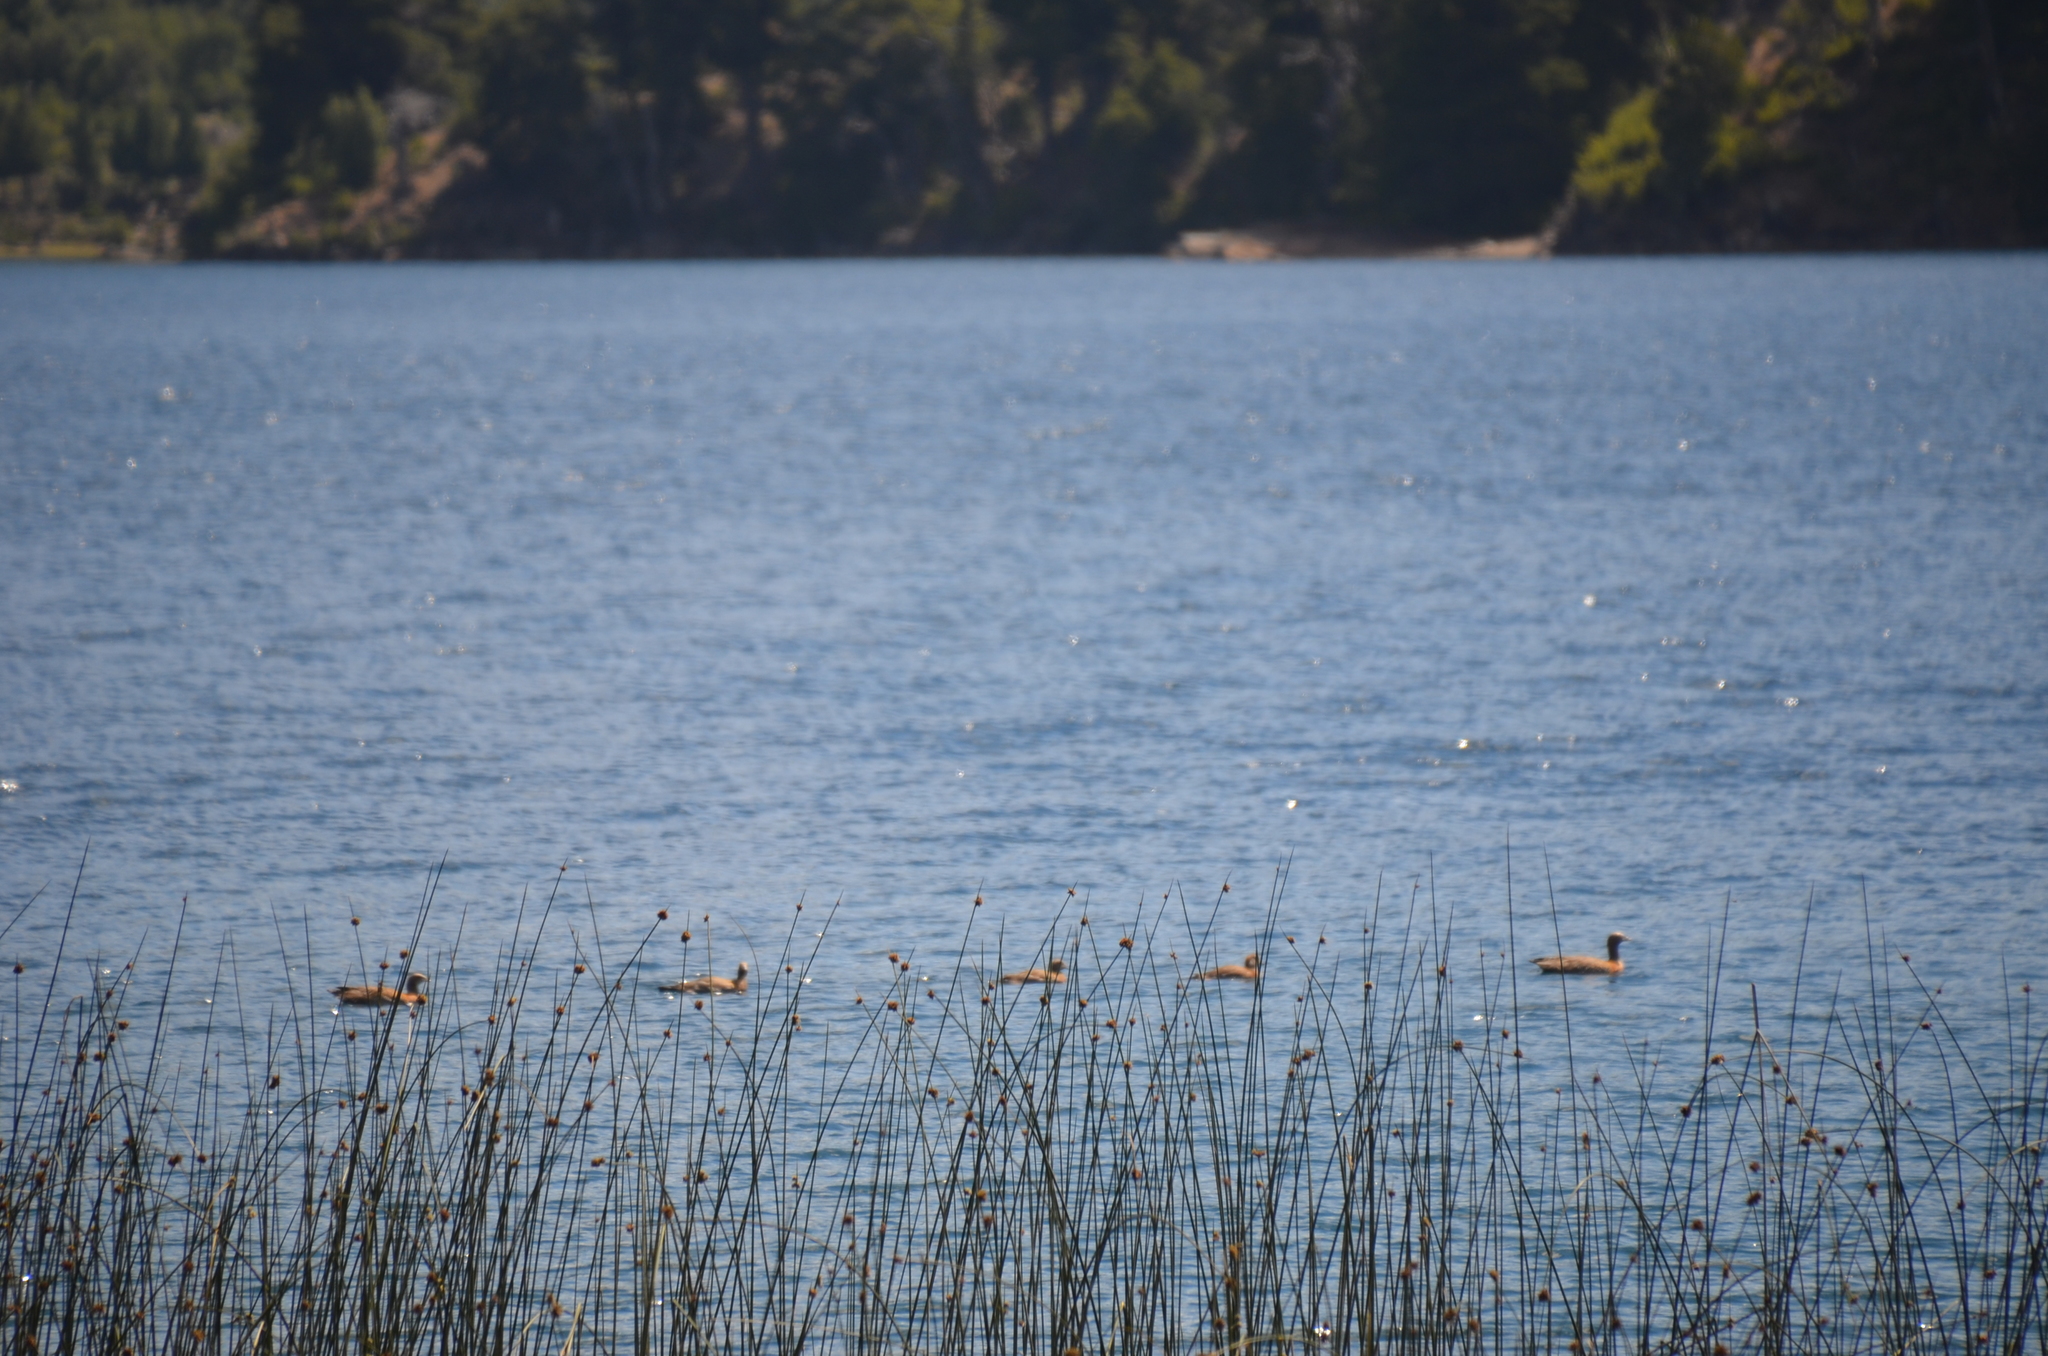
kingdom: Animalia
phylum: Chordata
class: Aves
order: Anseriformes
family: Anatidae
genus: Chloephaga
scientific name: Chloephaga poliocephala
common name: Ashy-headed goose
